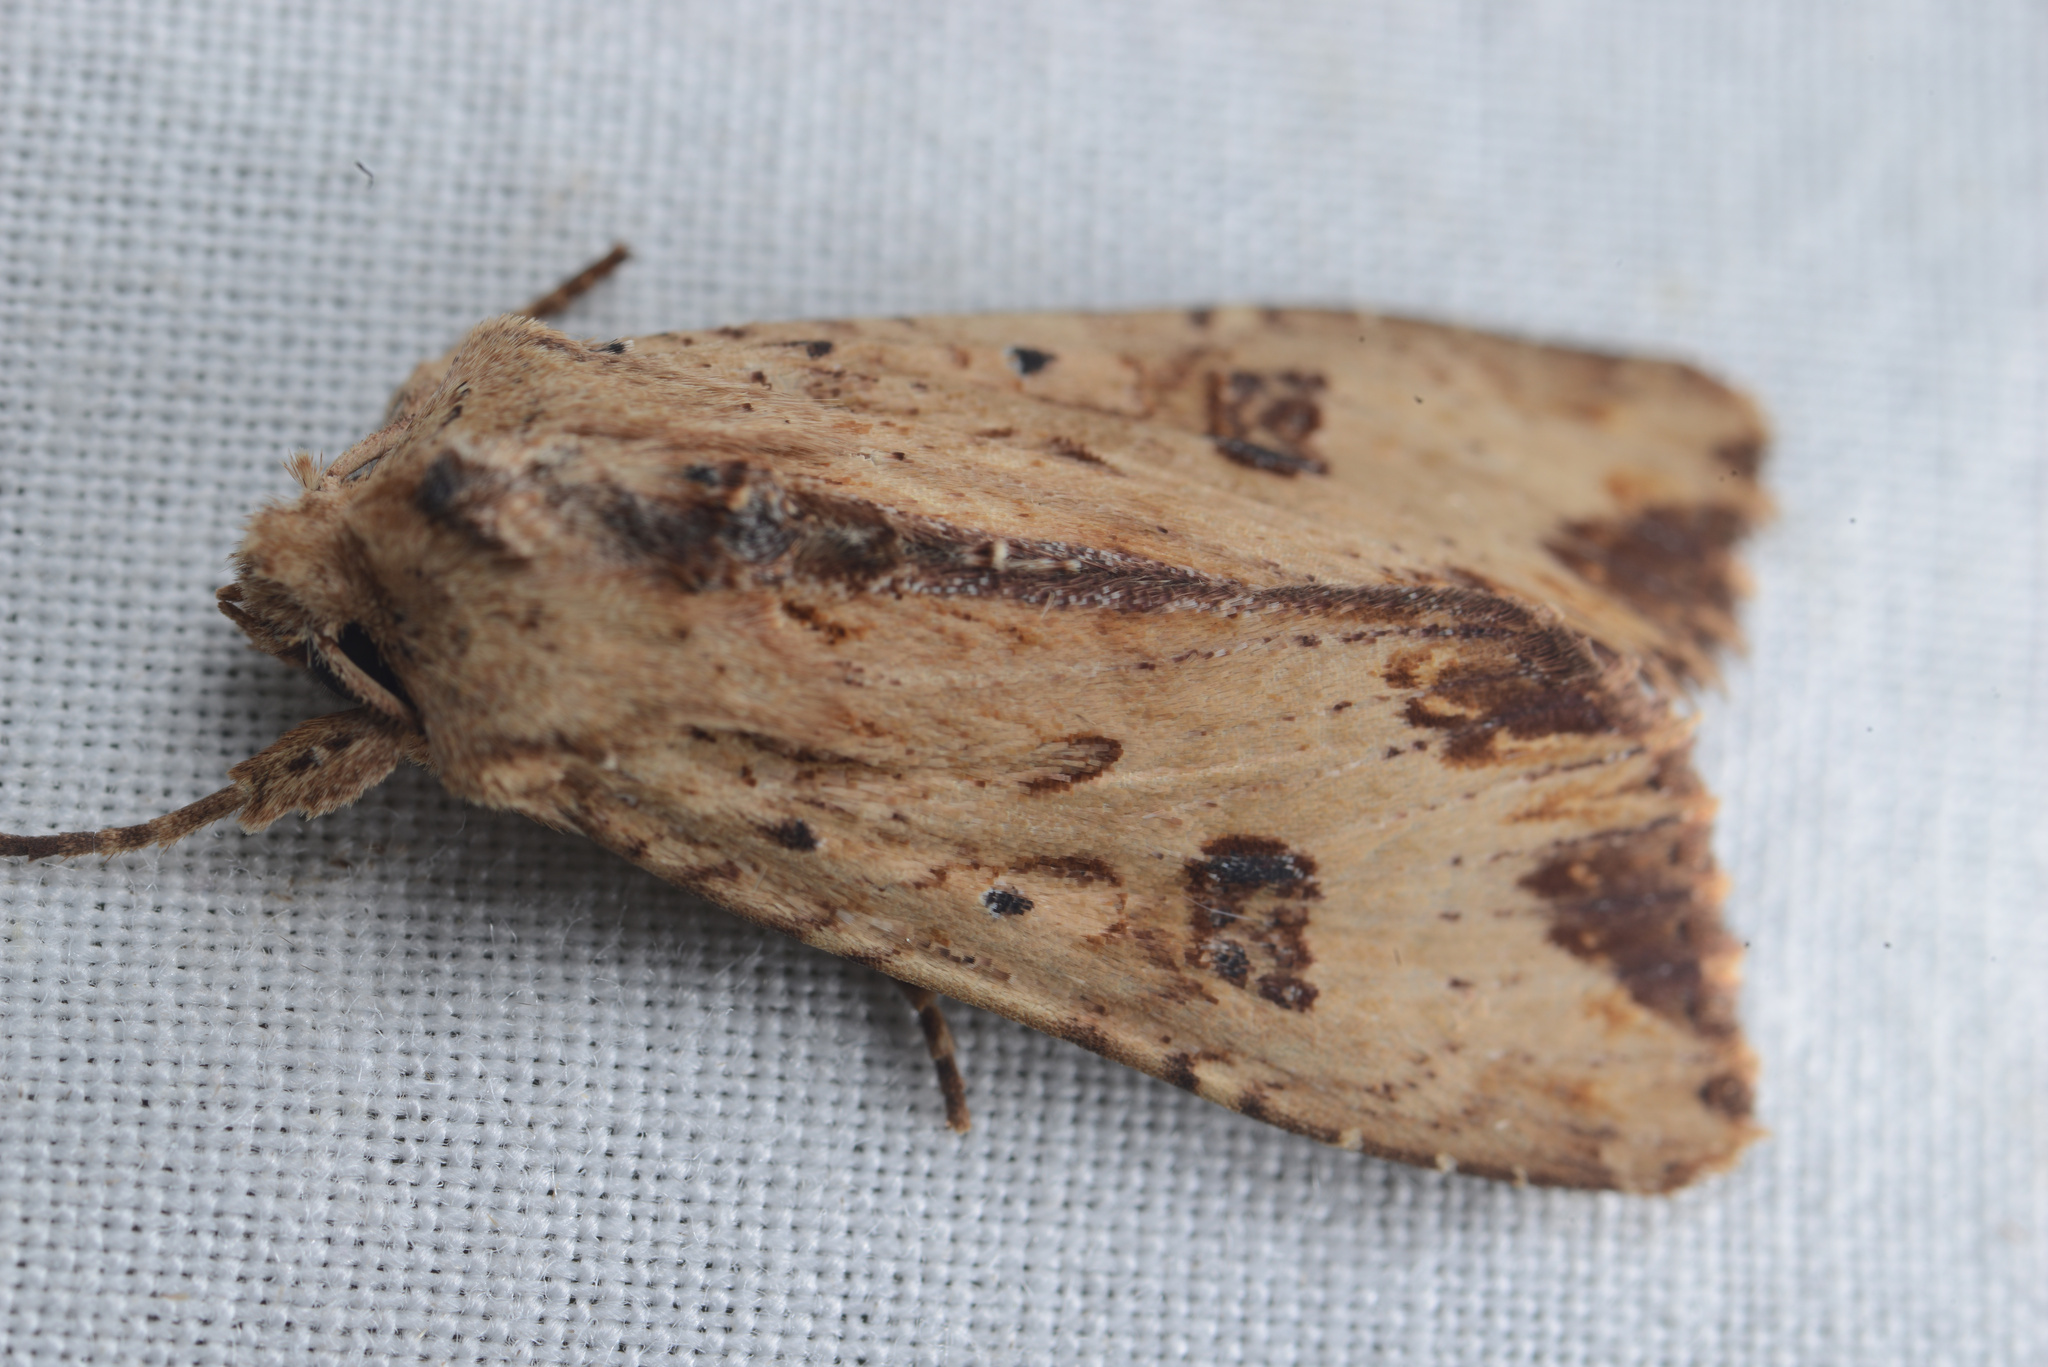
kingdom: Animalia
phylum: Arthropoda
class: Insecta
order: Lepidoptera
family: Noctuidae
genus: Ichneutica
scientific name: Ichneutica
